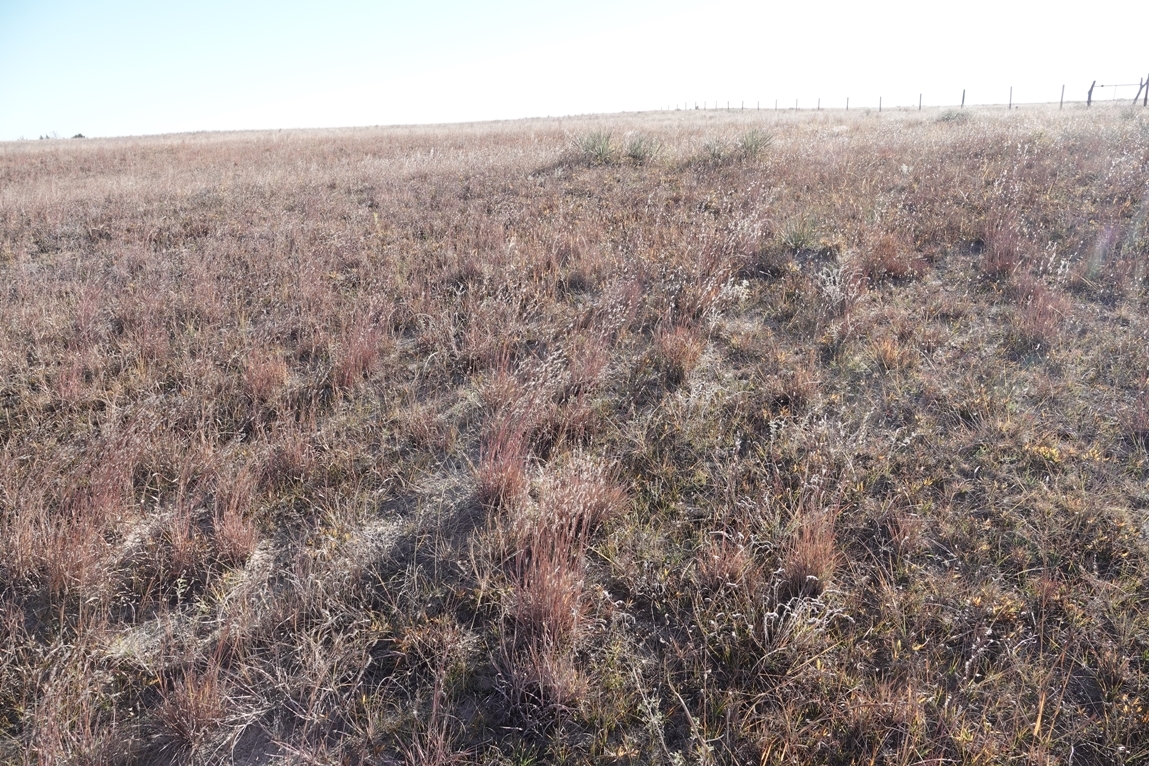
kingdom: Plantae
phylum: Tracheophyta
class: Liliopsida
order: Poales
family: Poaceae
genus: Schizachyrium
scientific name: Schizachyrium scoparium
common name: Little bluestem
